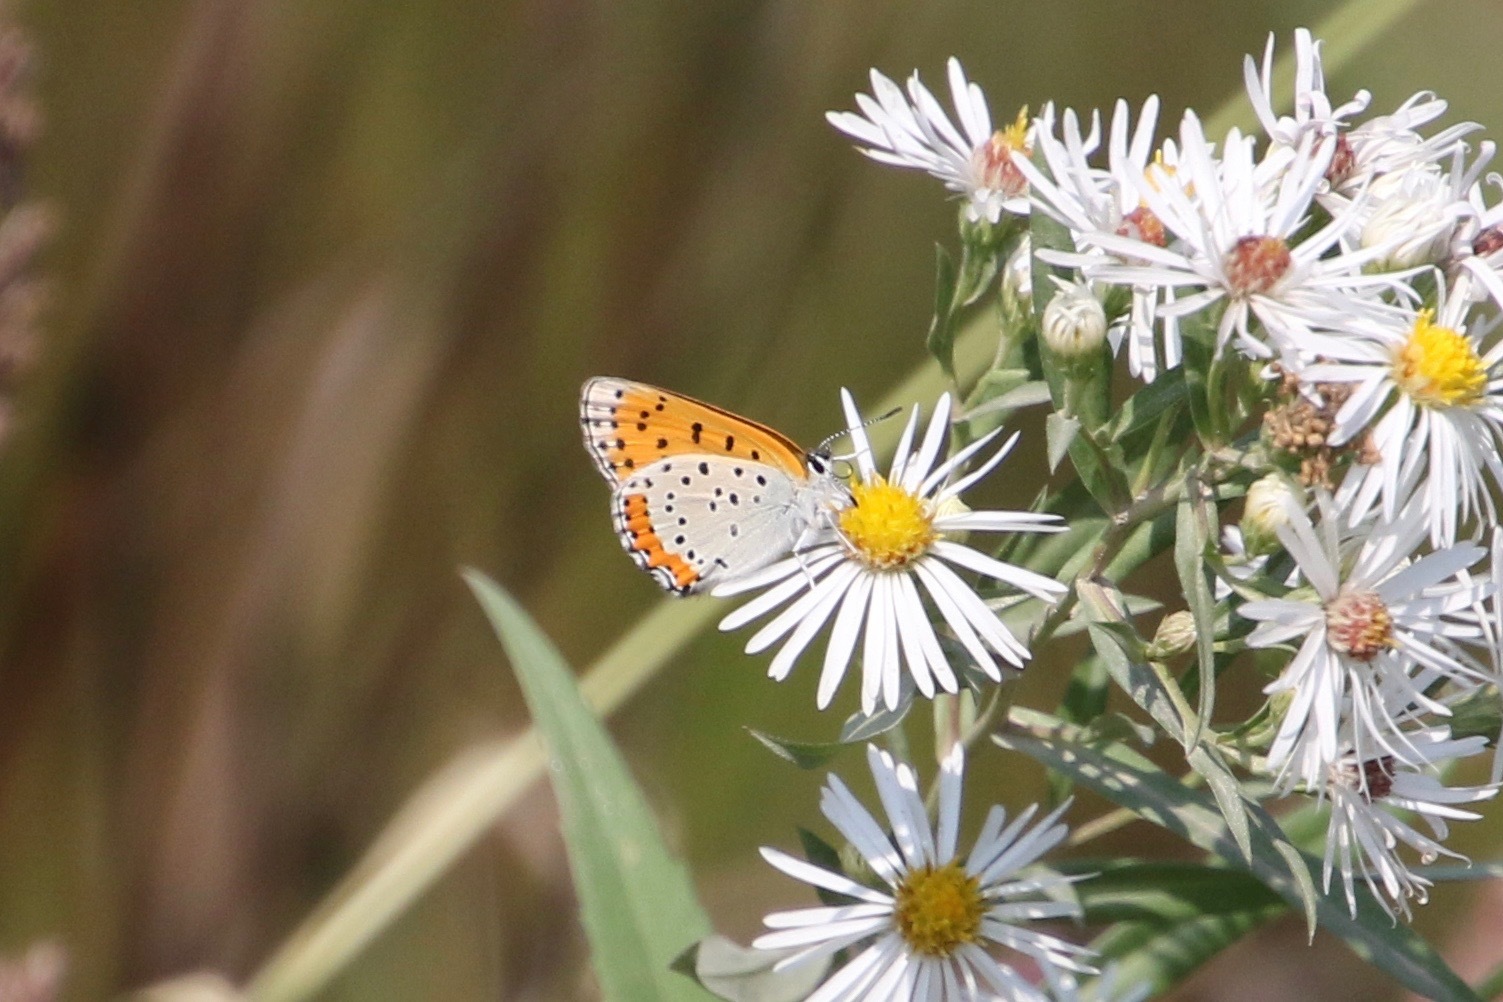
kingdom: Animalia
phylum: Arthropoda
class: Insecta
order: Lepidoptera
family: Lycaenidae
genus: Tharsalea
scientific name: Tharsalea hyllus
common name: Bronze copper
